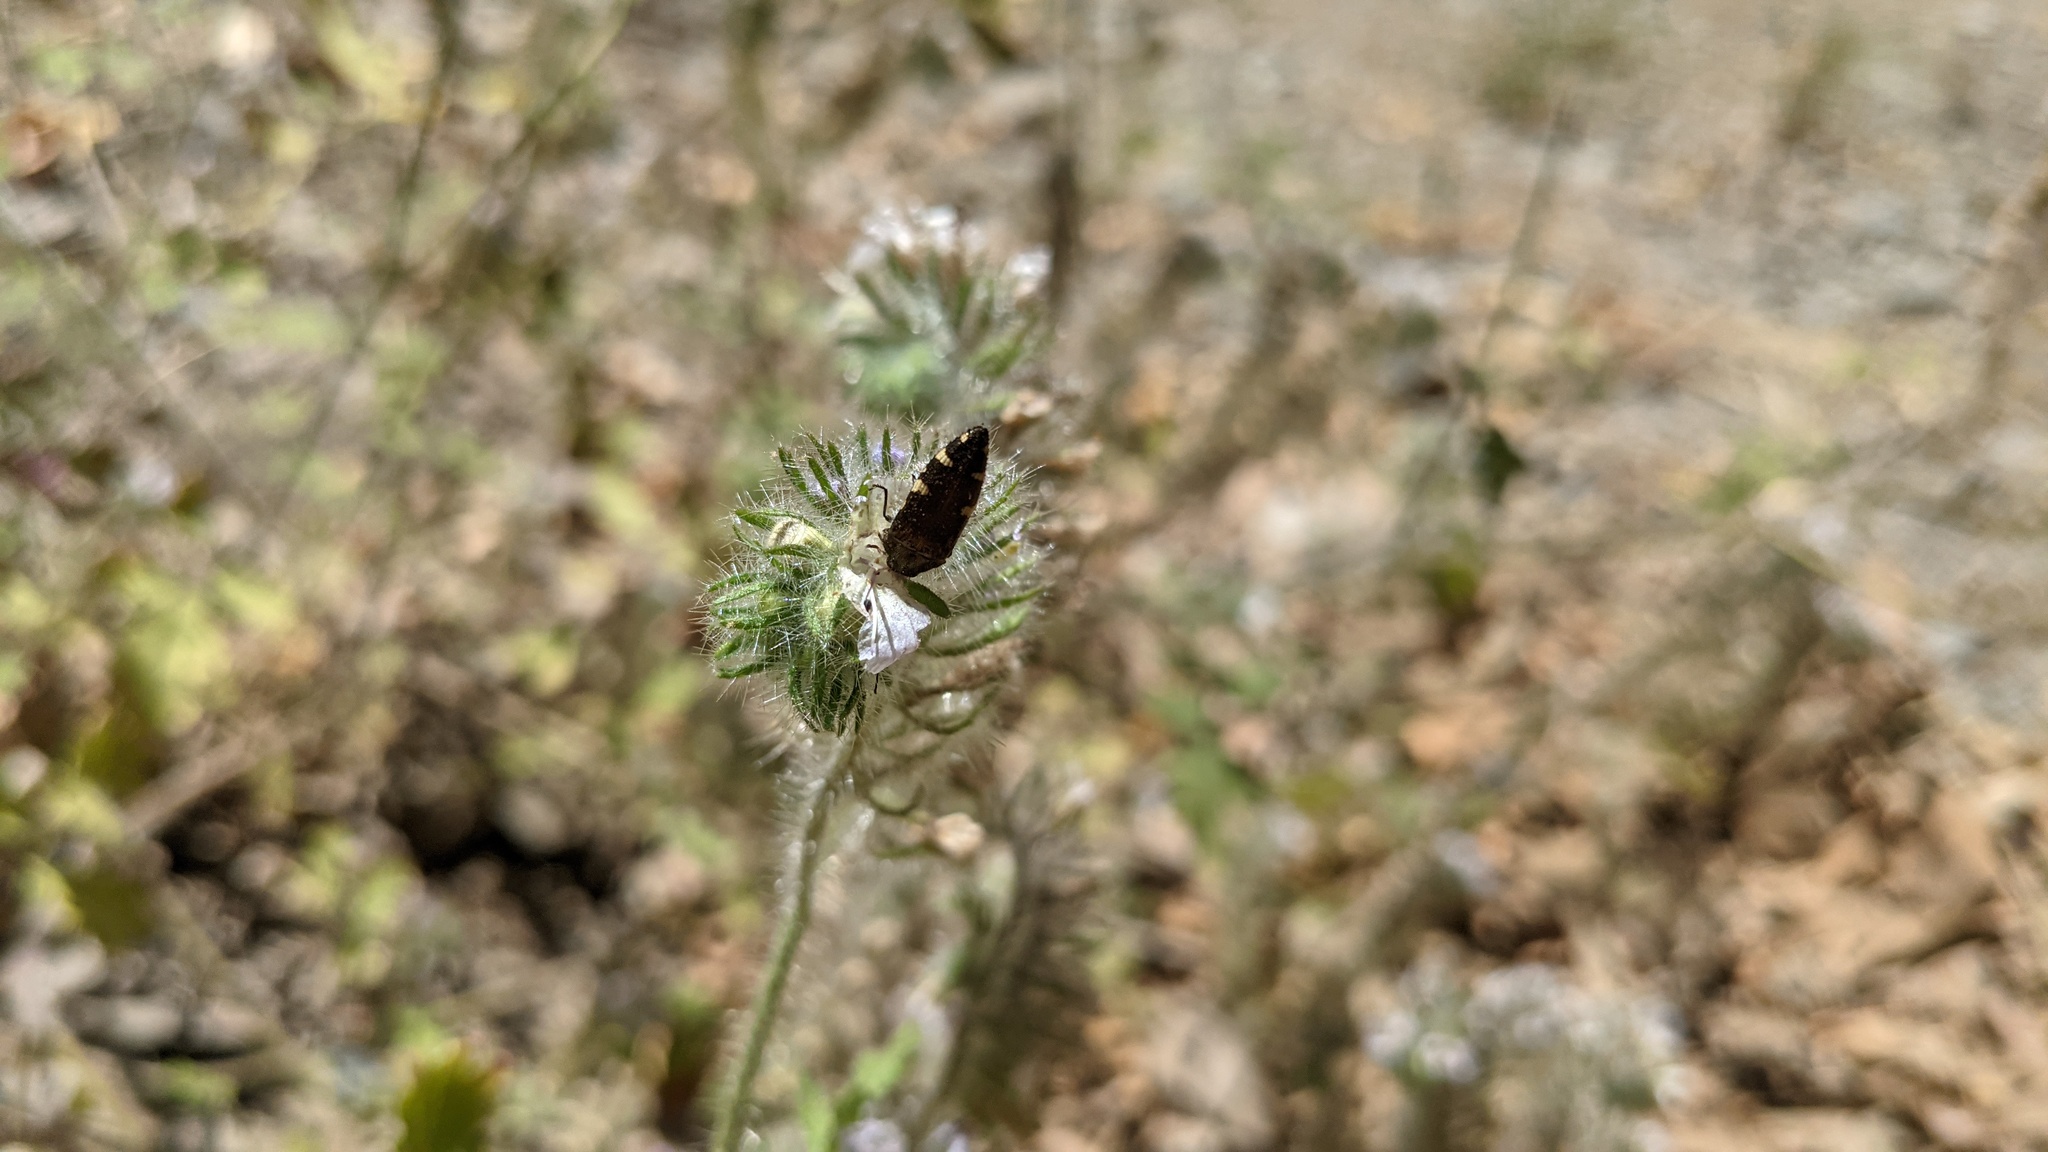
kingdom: Animalia
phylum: Arthropoda
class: Insecta
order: Coleoptera
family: Buprestidae
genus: Acmaeodera
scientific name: Acmaeodera prorsa
